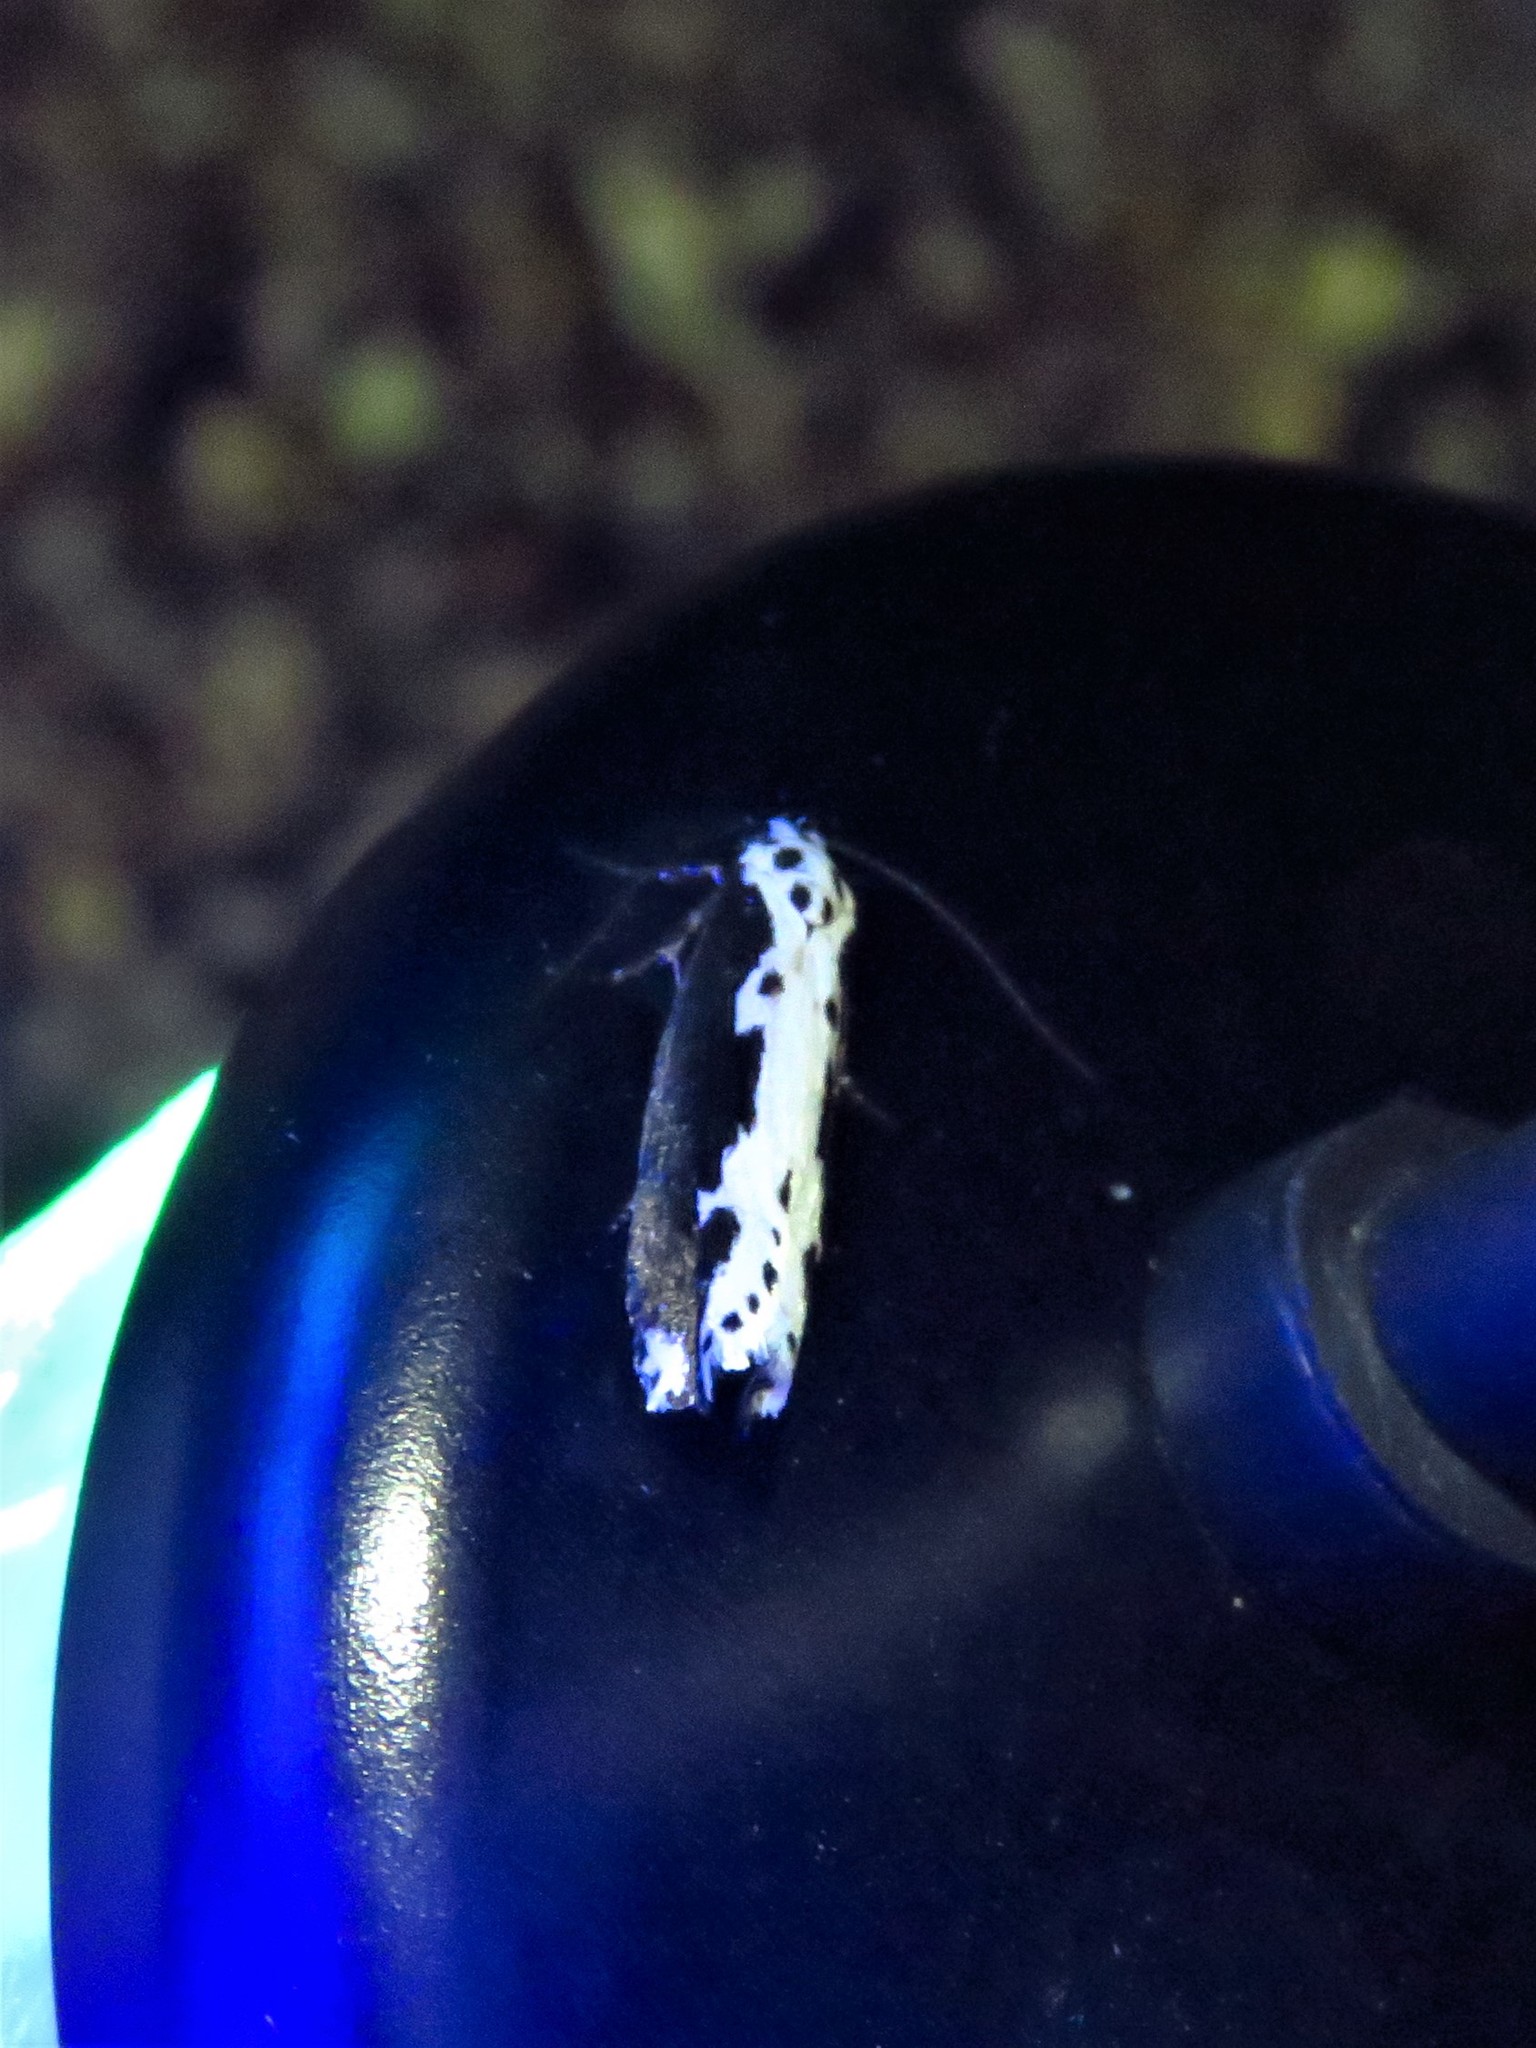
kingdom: Animalia
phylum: Arthropoda
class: Insecta
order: Lepidoptera
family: Ethmiidae
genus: Ethmia
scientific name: Ethmia semilugens
